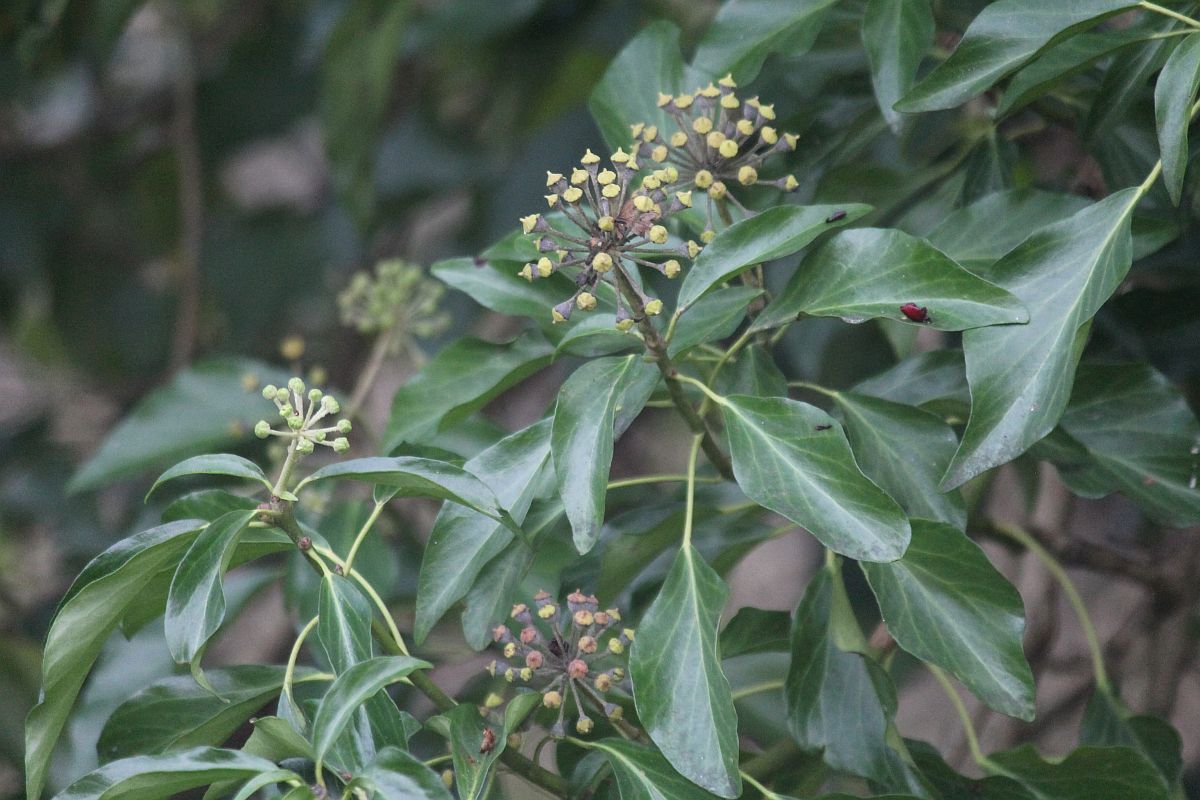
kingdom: Plantae
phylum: Tracheophyta
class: Magnoliopsida
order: Apiales
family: Araliaceae
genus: Hedera
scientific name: Hedera helix
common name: Ivy
